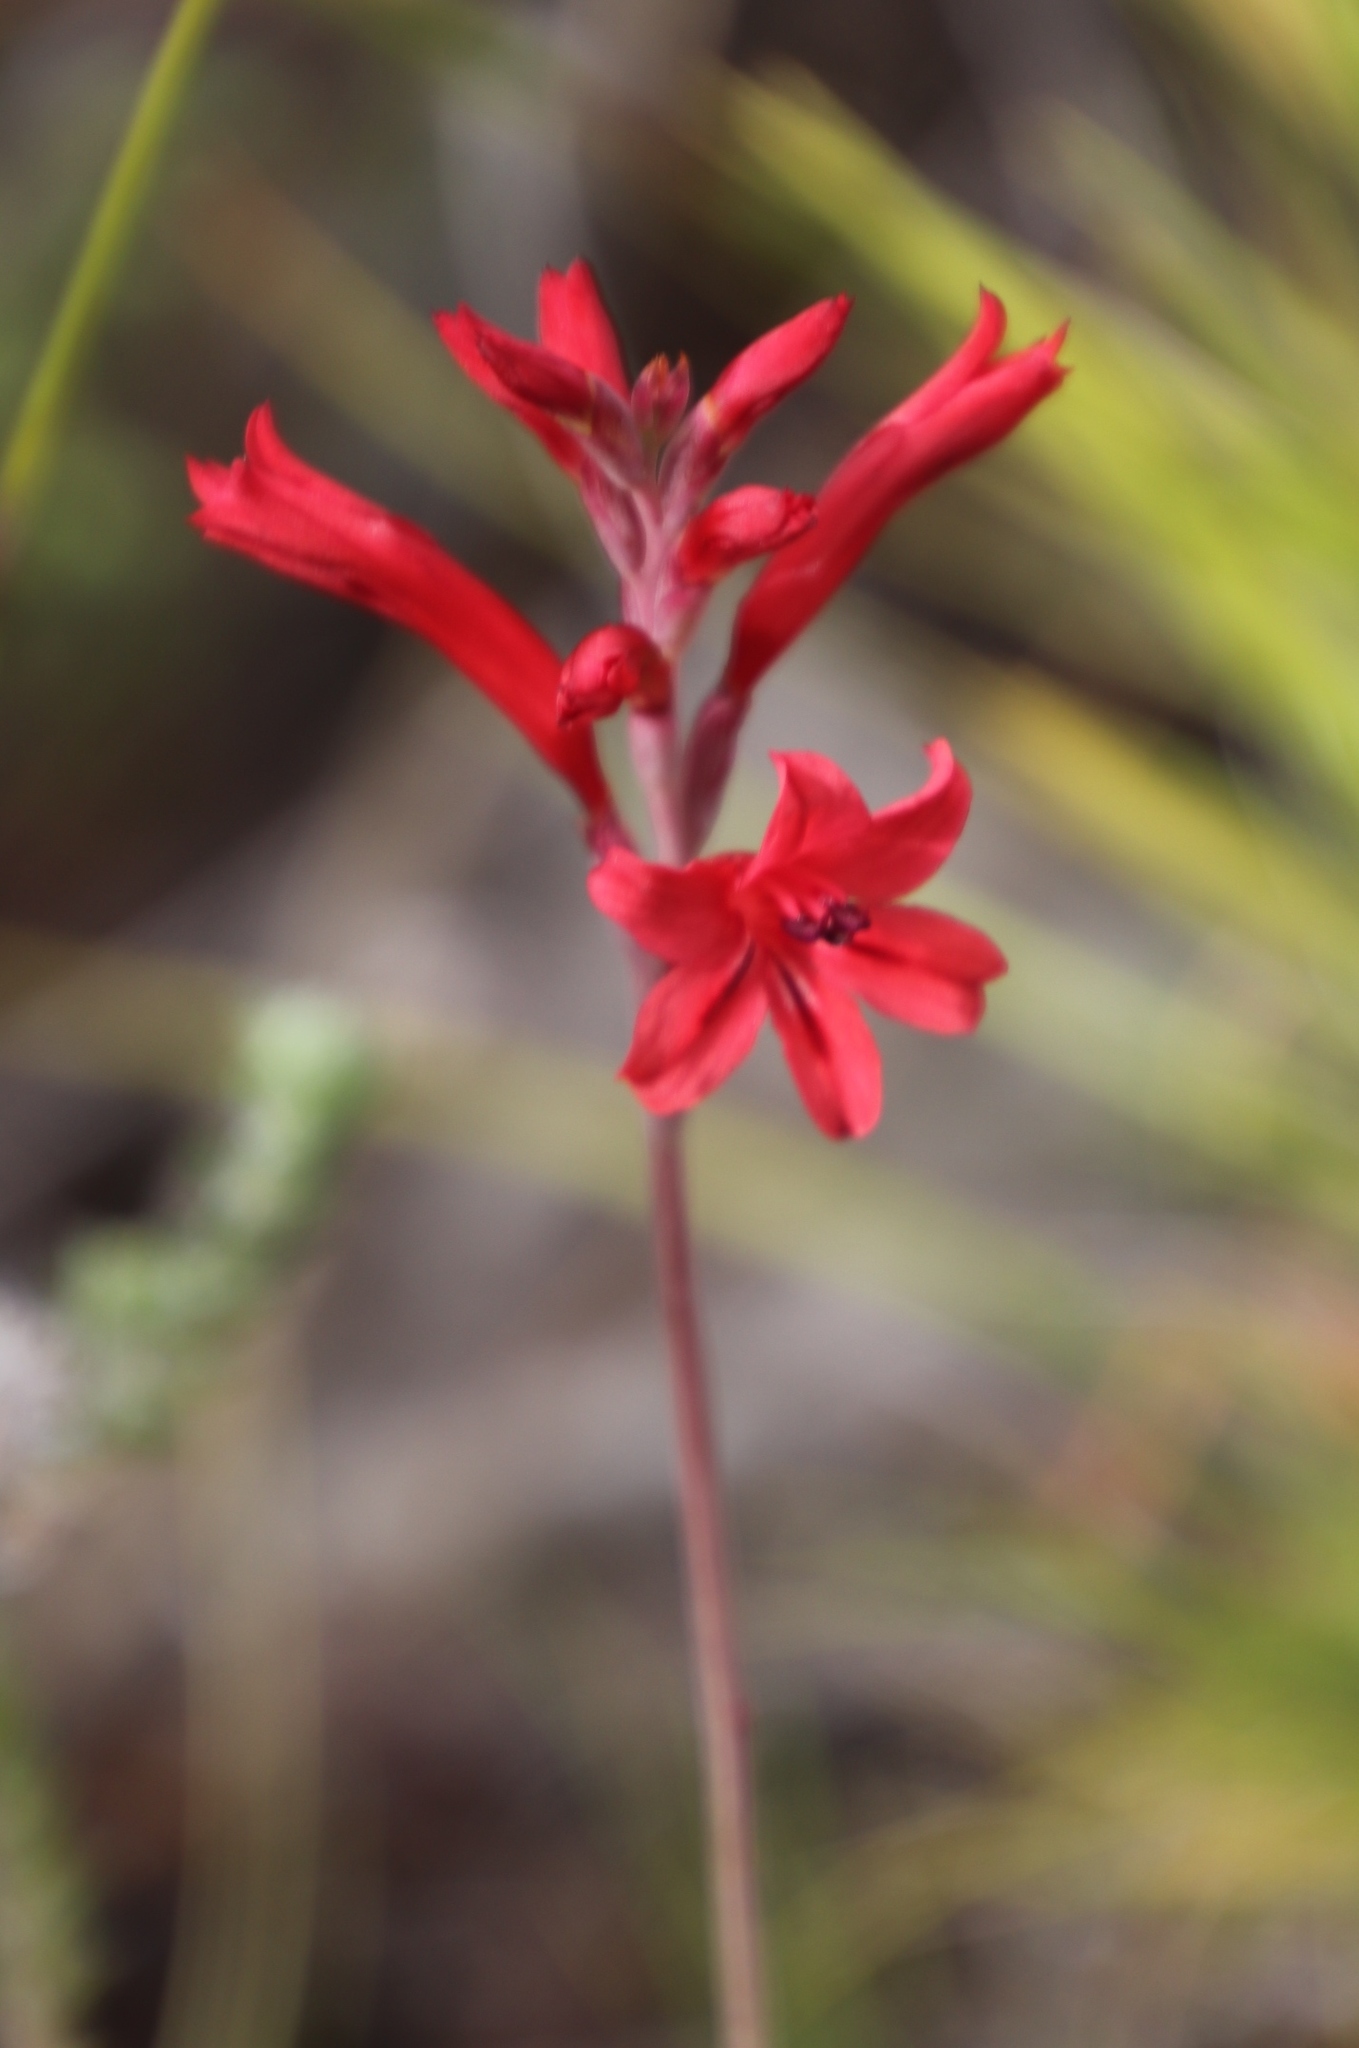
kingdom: Plantae
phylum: Tracheophyta
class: Liliopsida
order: Asparagales
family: Iridaceae
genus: Tritoniopsis
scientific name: Tritoniopsis pulchra
